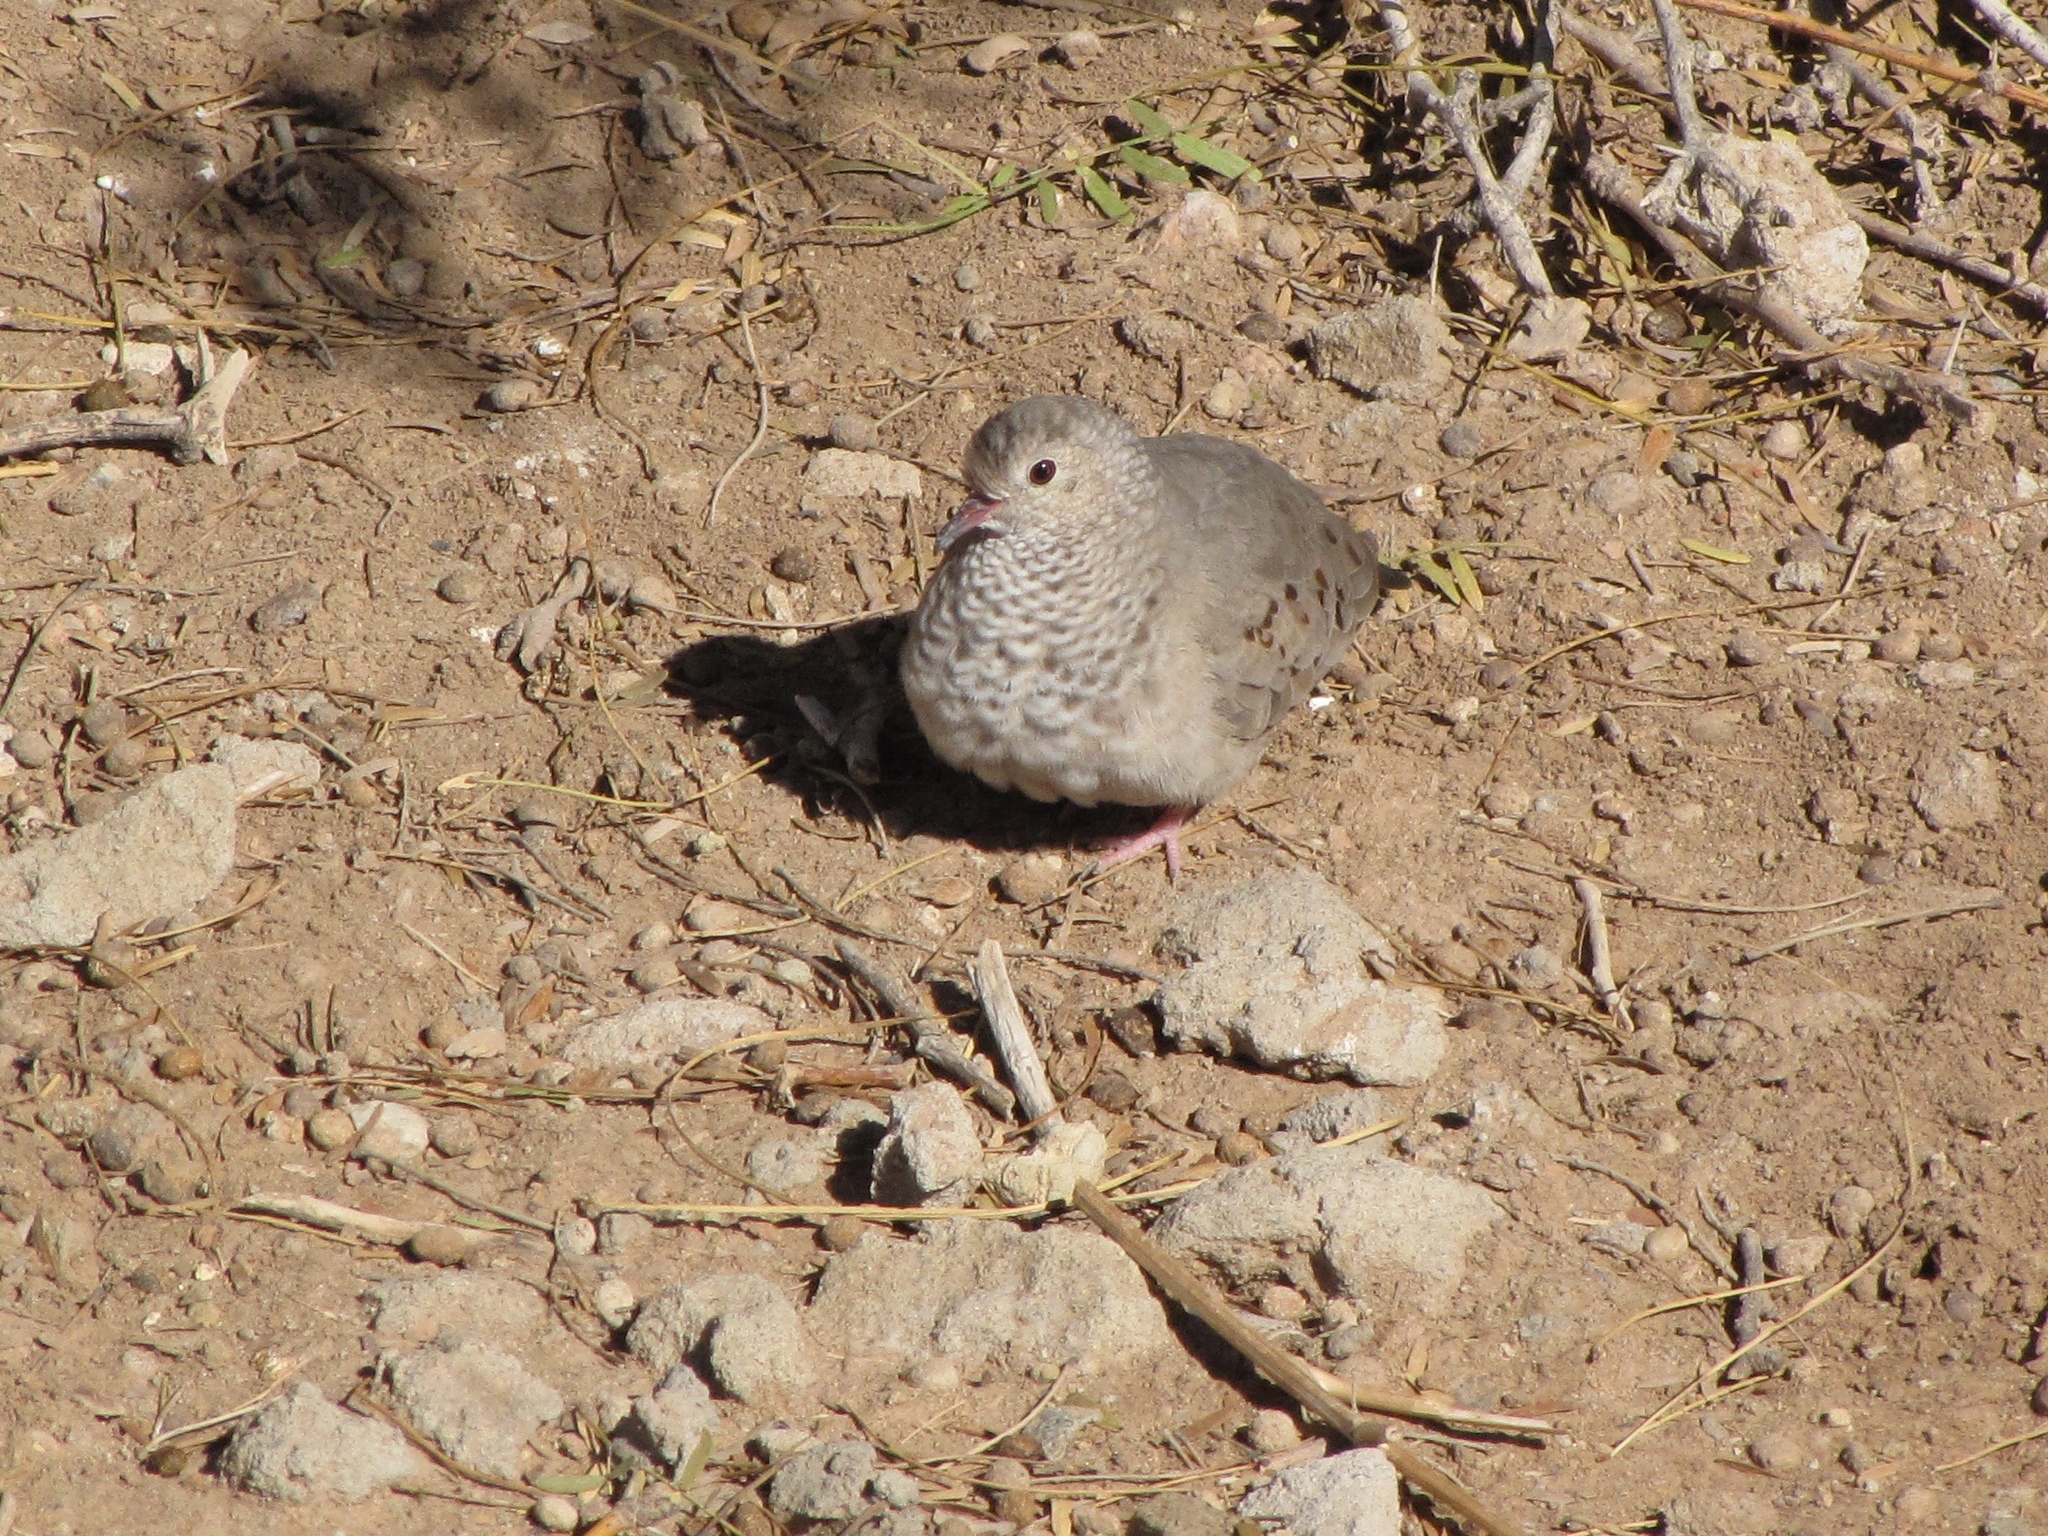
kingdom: Animalia
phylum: Chordata
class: Aves
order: Columbiformes
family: Columbidae
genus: Columbina
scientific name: Columbina passerina
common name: Common ground-dove
